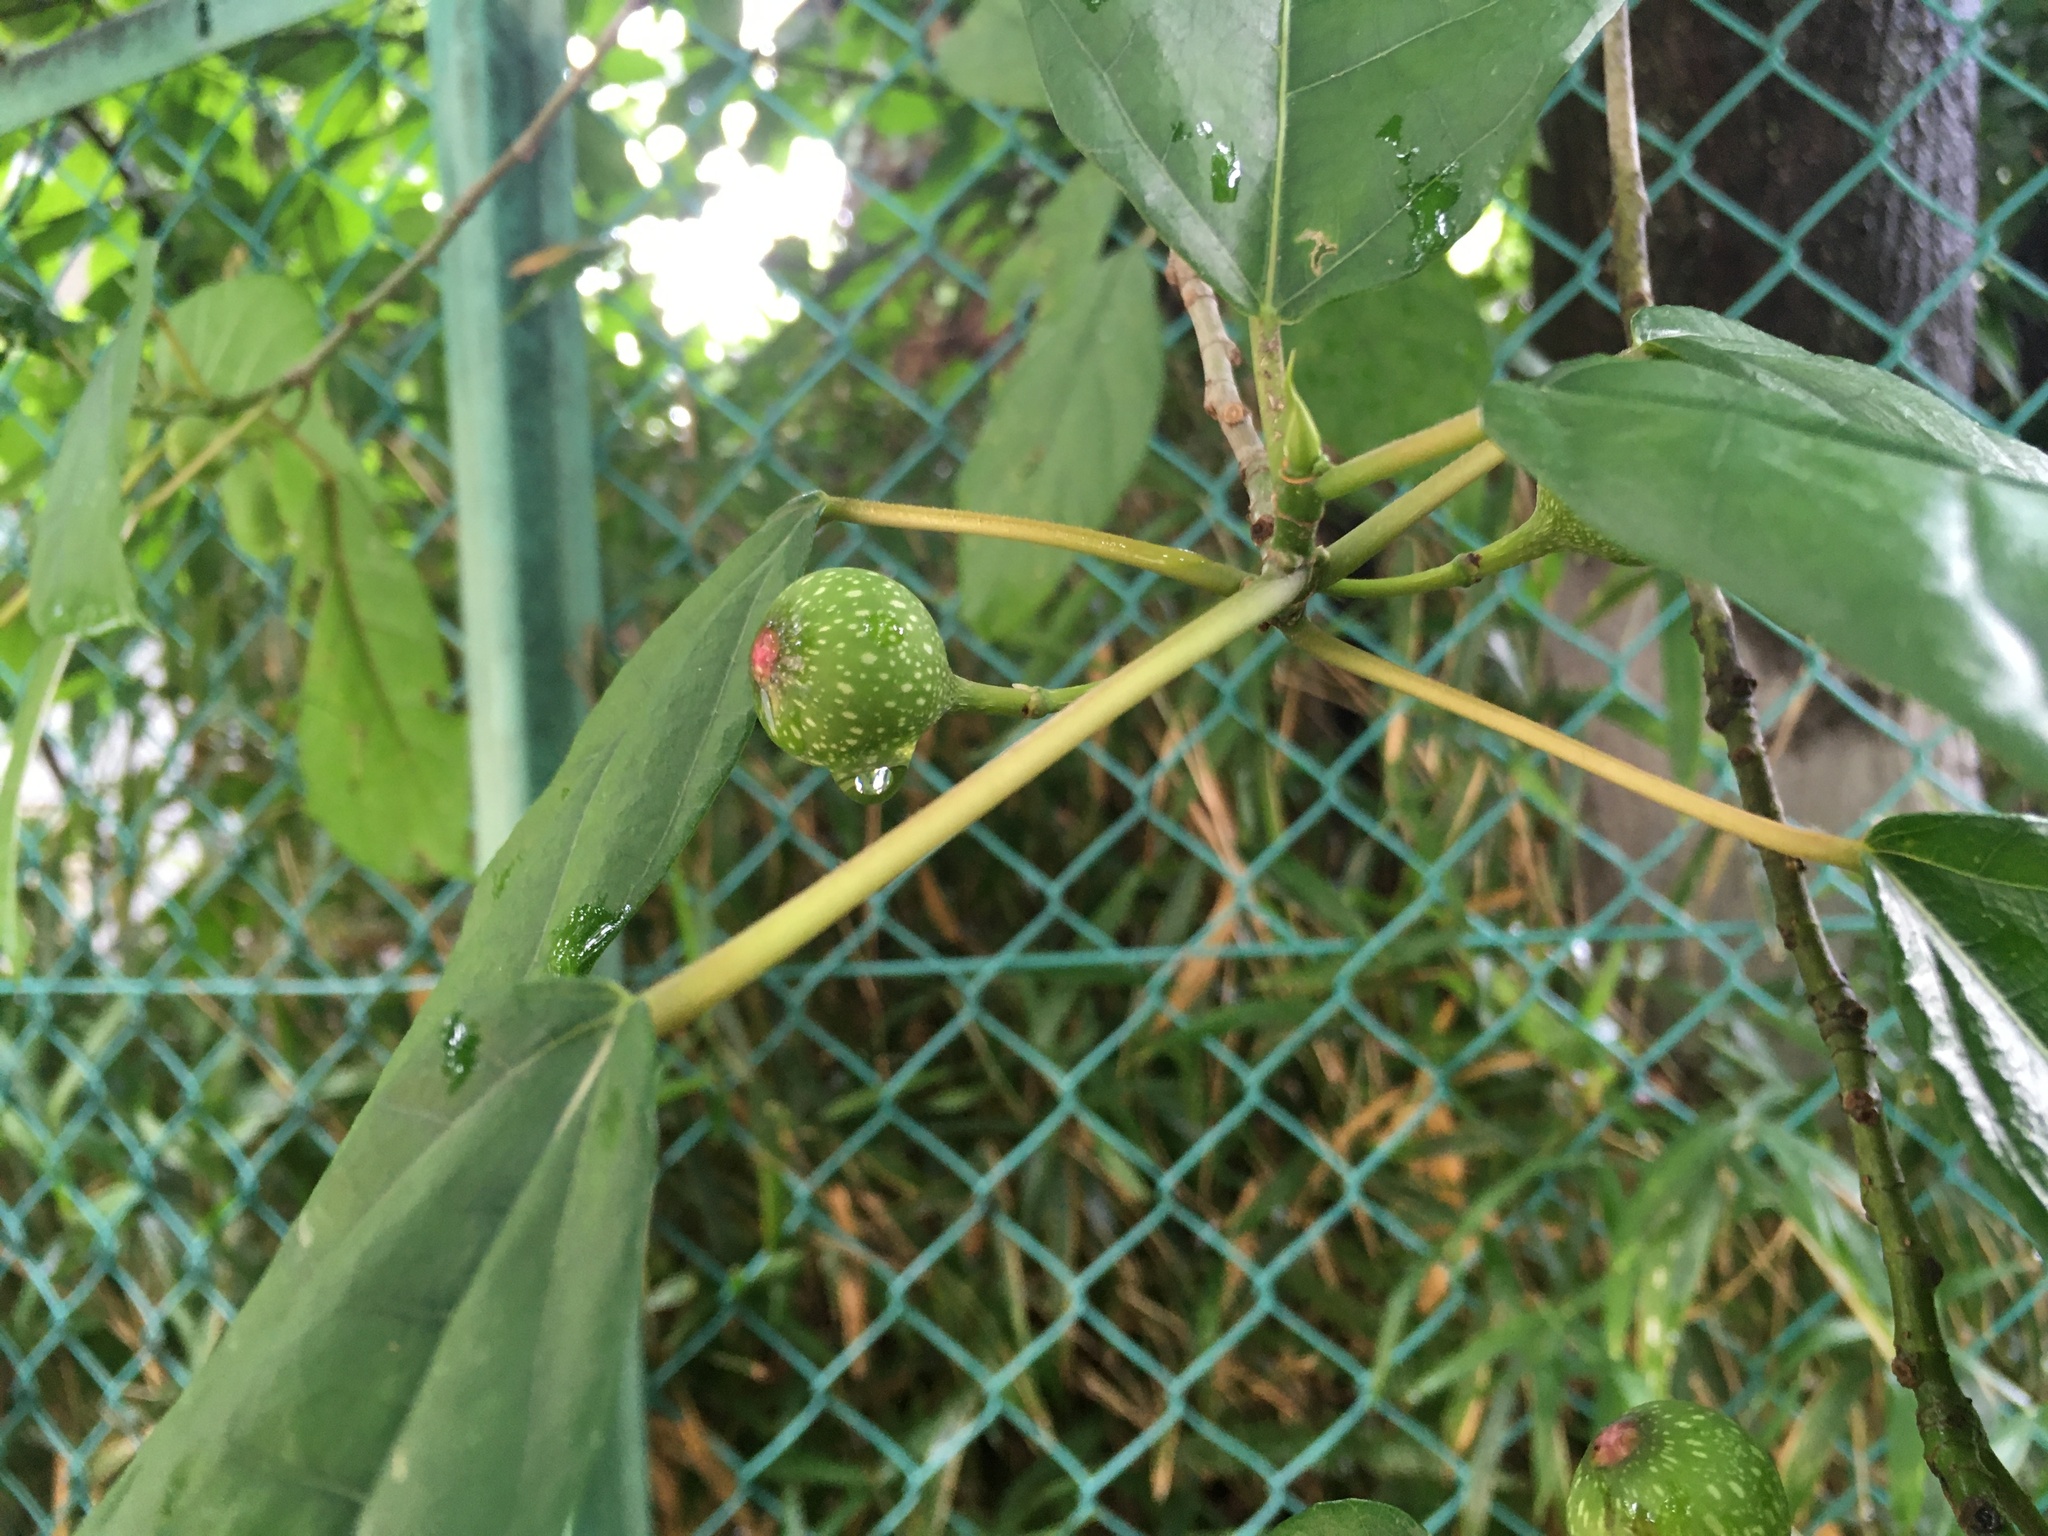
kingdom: Plantae
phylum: Tracheophyta
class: Magnoliopsida
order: Rosales
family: Moraceae
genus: Ficus
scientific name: Ficus erecta
